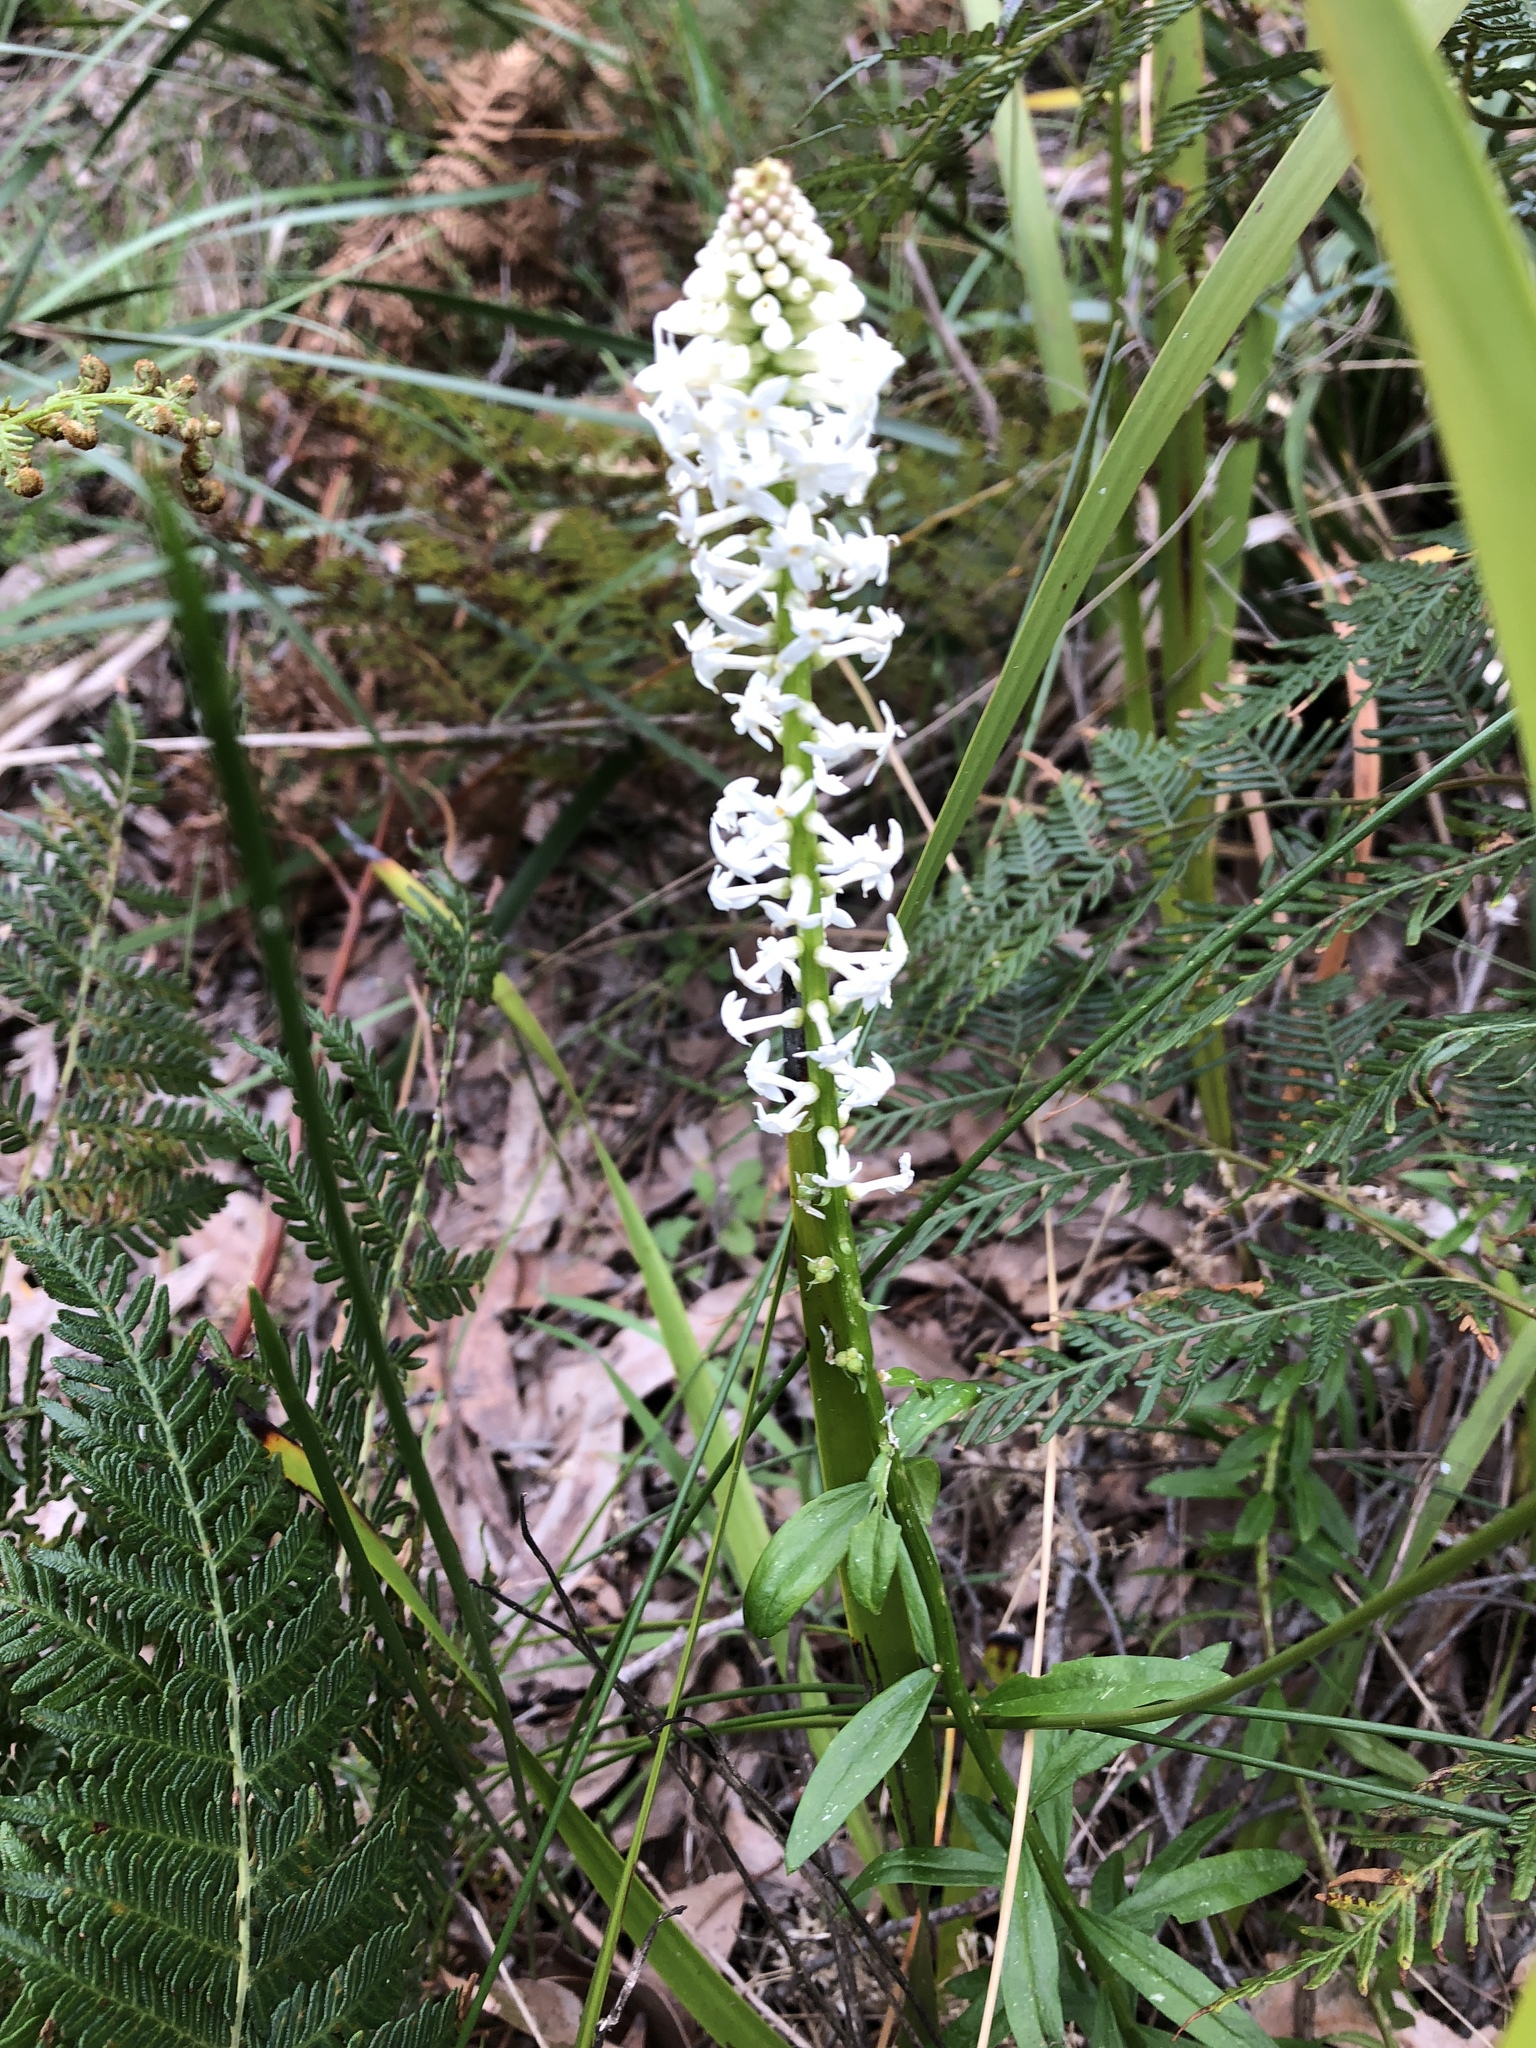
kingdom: Plantae
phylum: Tracheophyta
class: Magnoliopsida
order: Celastrales
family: Celastraceae
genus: Stackhousia
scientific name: Stackhousia monogyna
